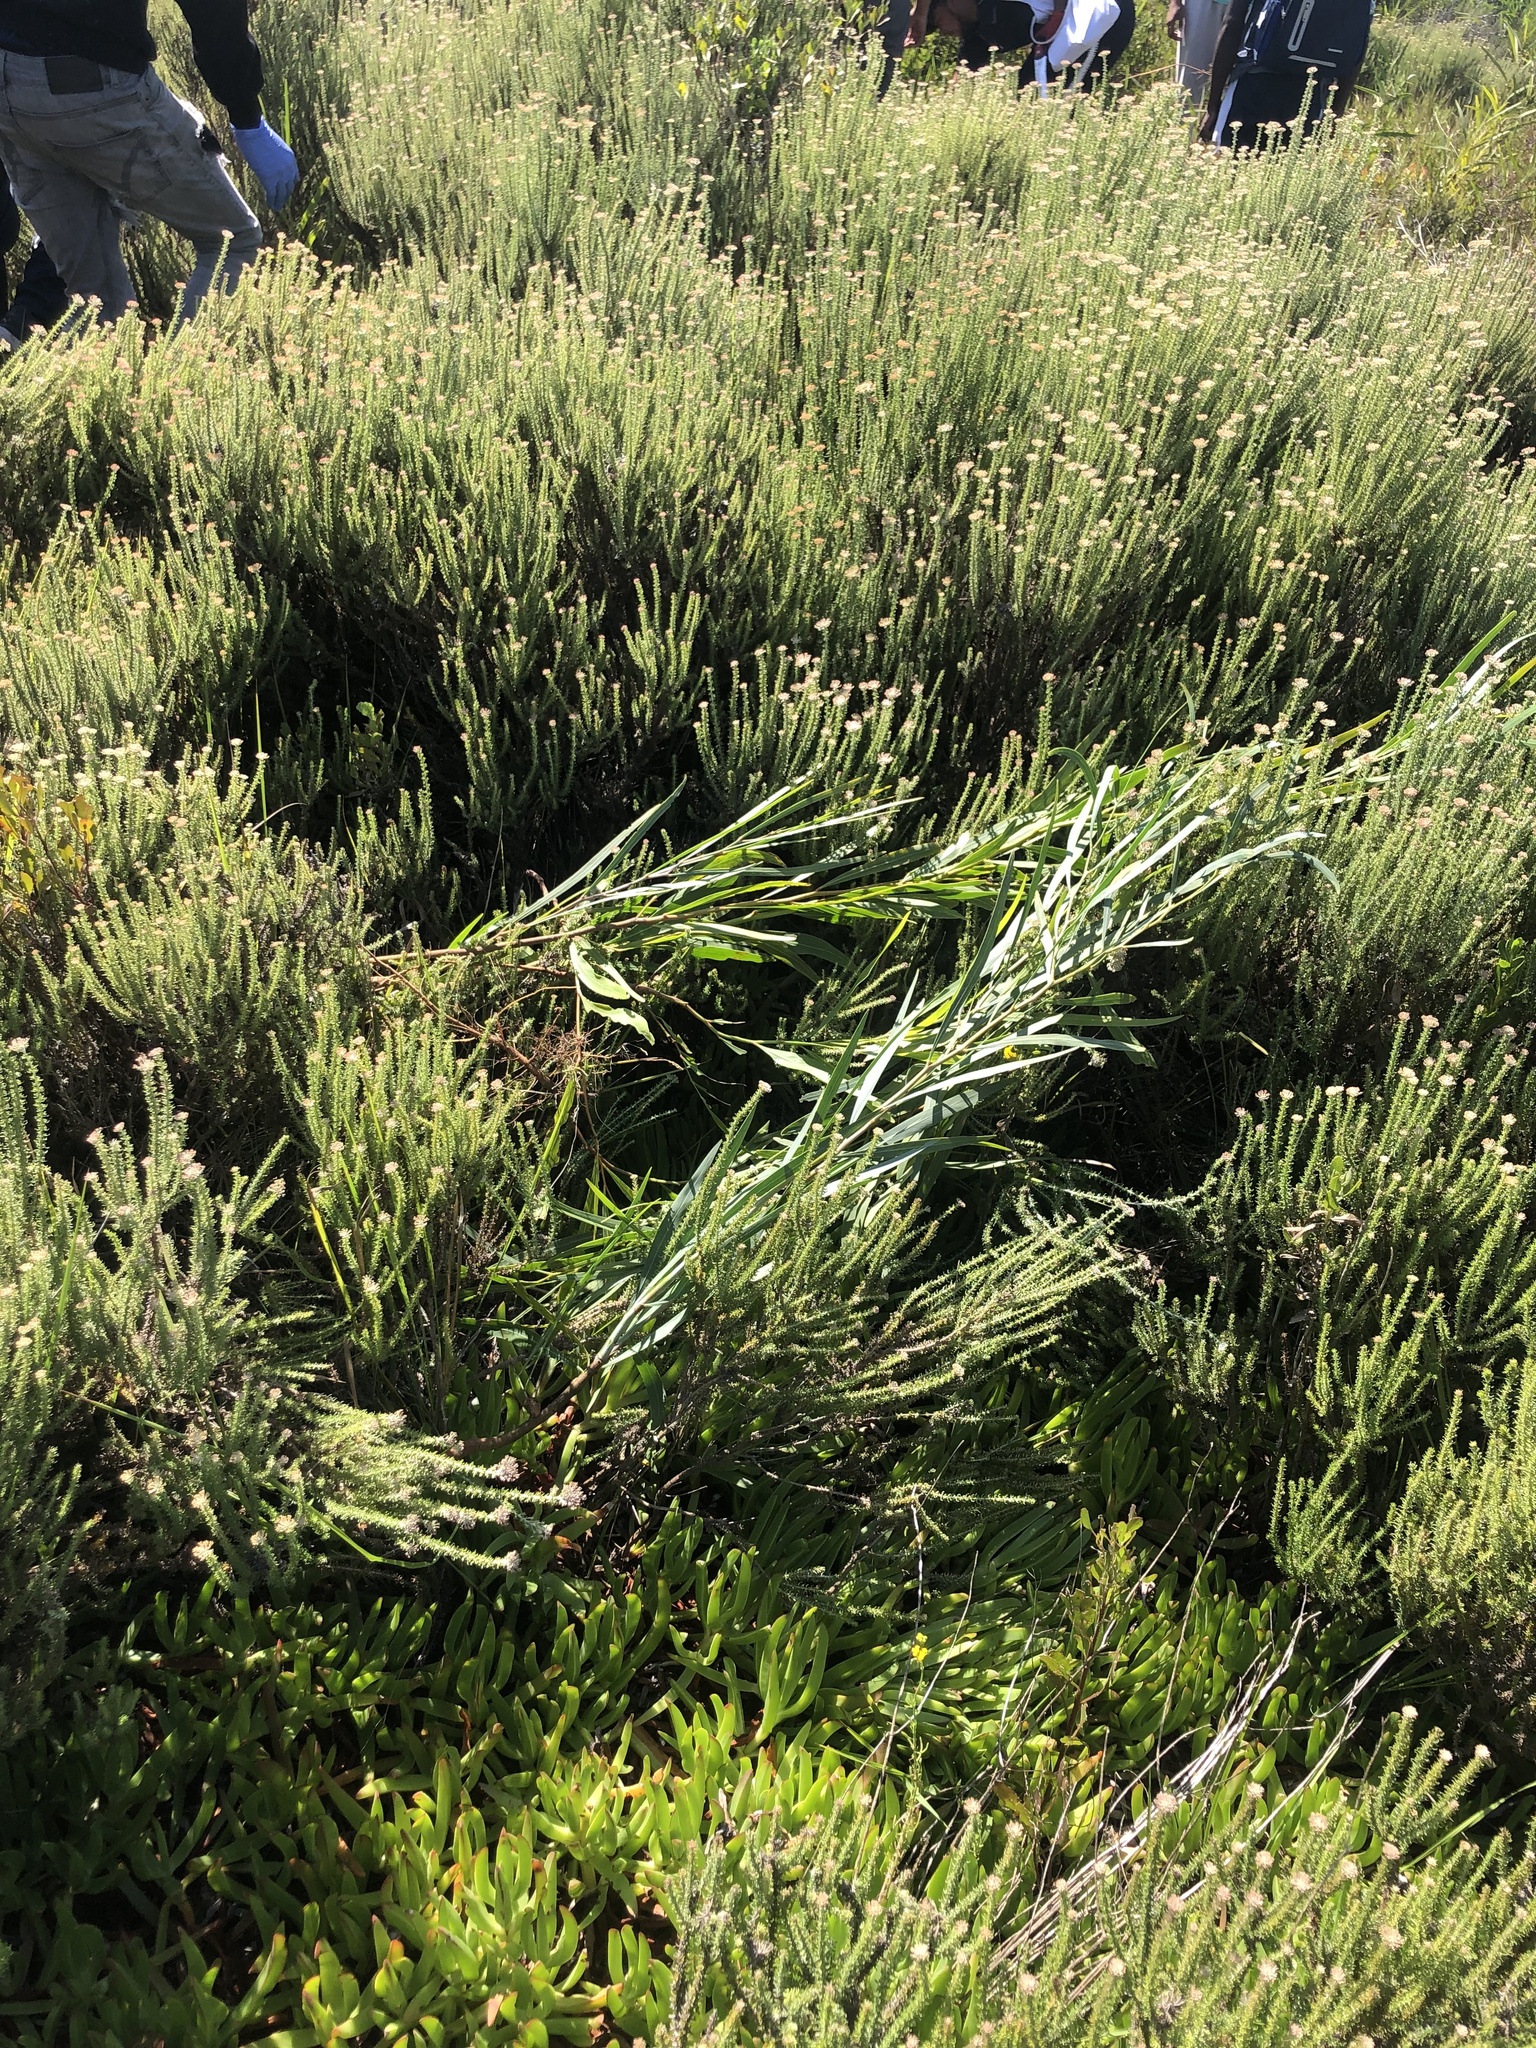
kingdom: Plantae
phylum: Tracheophyta
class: Magnoliopsida
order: Fabales
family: Fabaceae
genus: Acacia
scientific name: Acacia saligna
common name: Orange wattle
